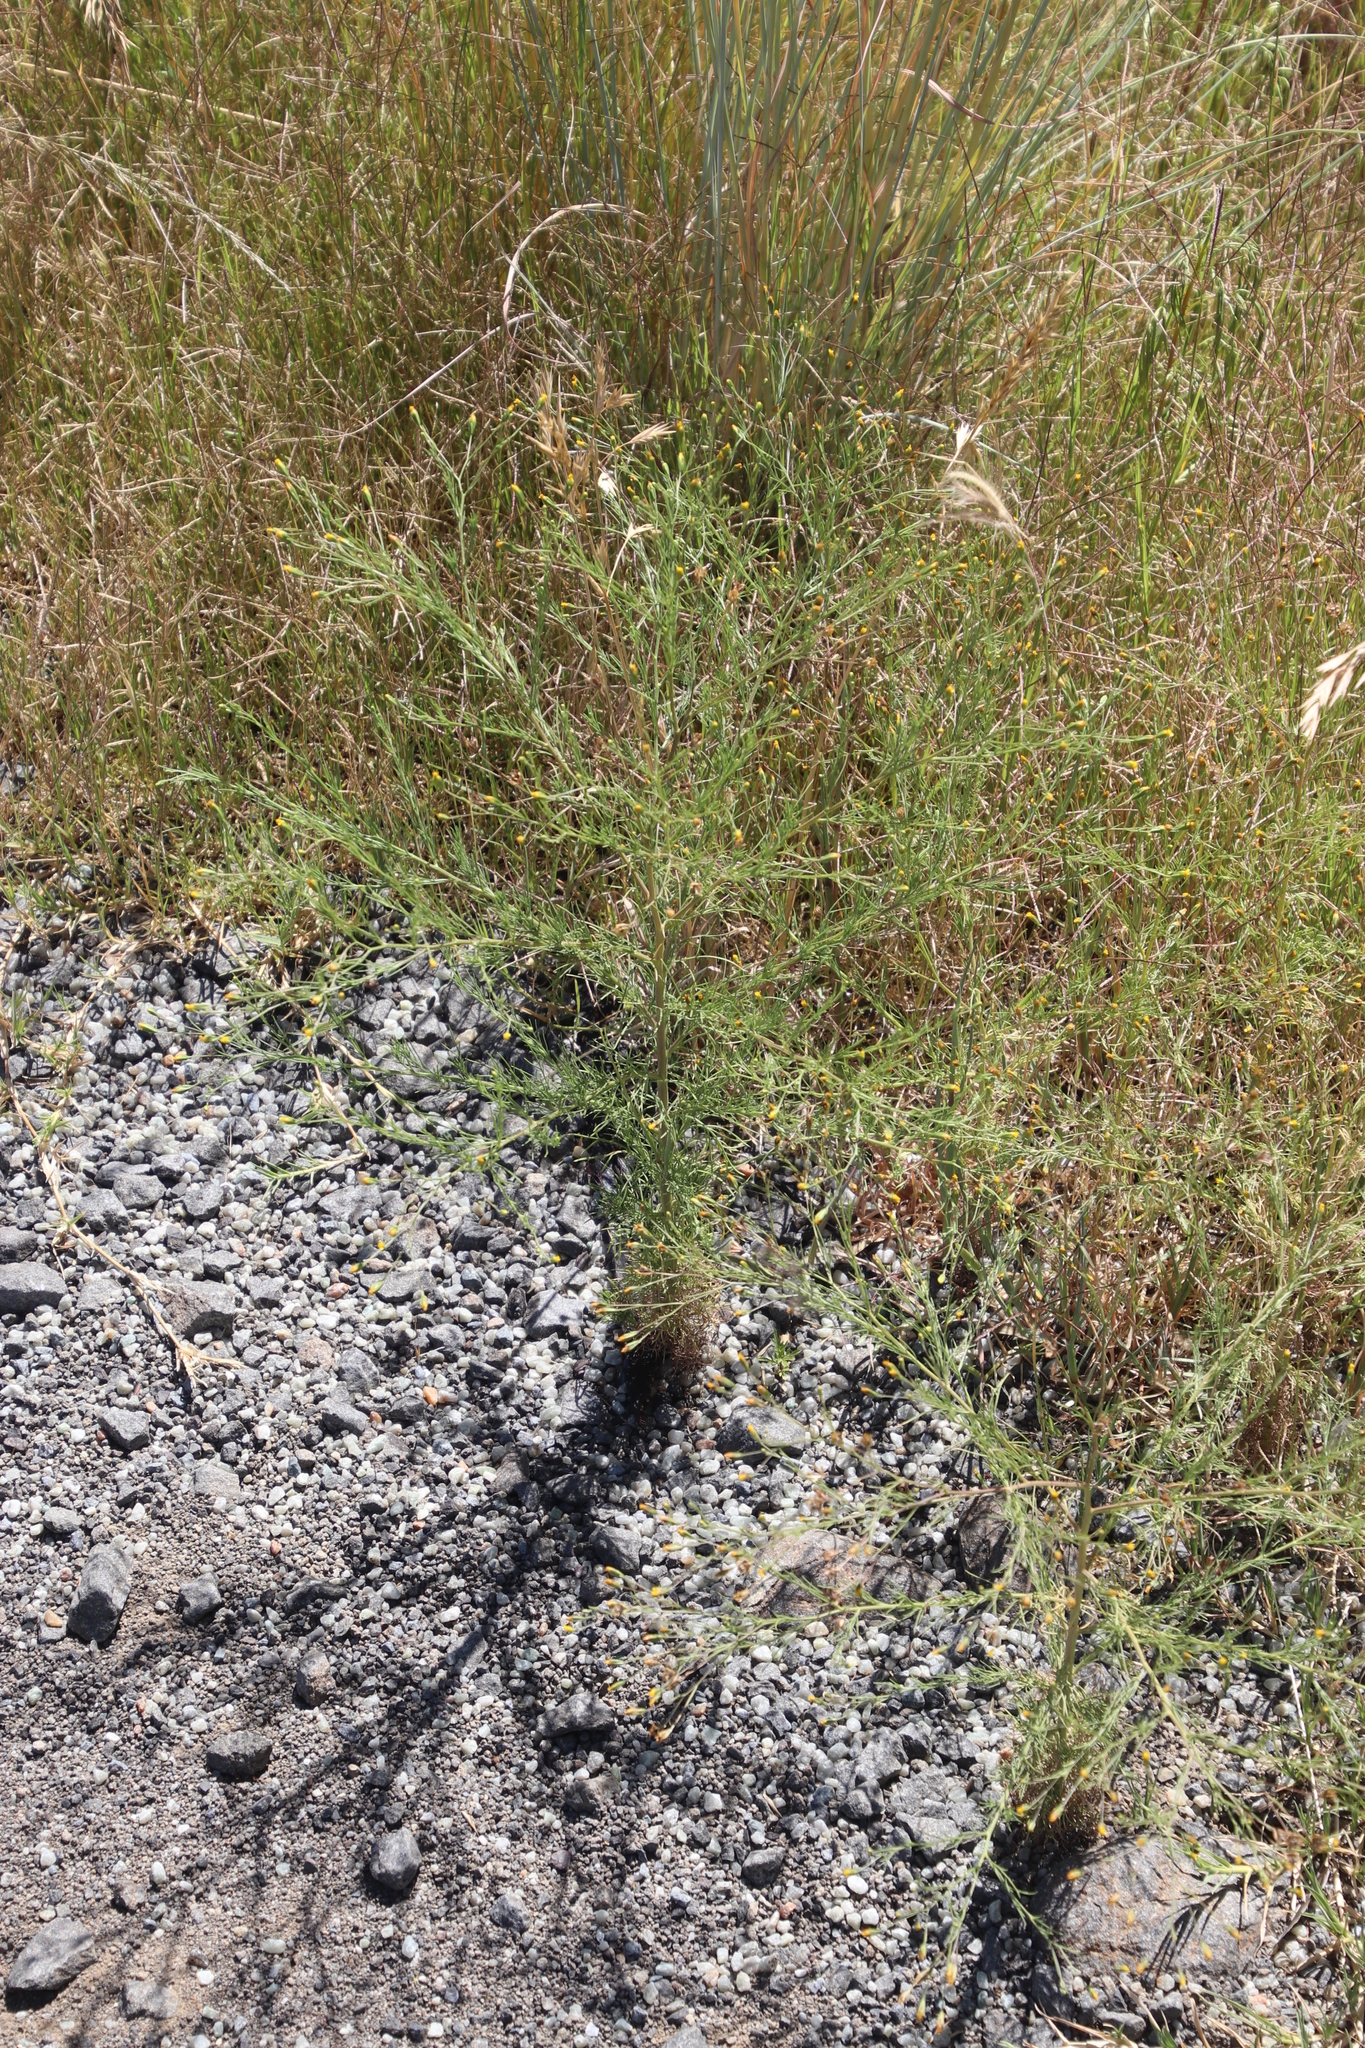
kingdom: Plantae
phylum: Tracheophyta
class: Magnoliopsida
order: Asterales
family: Asteraceae
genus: Schkuhria
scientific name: Schkuhria pinnata
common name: Dwarf marigold
